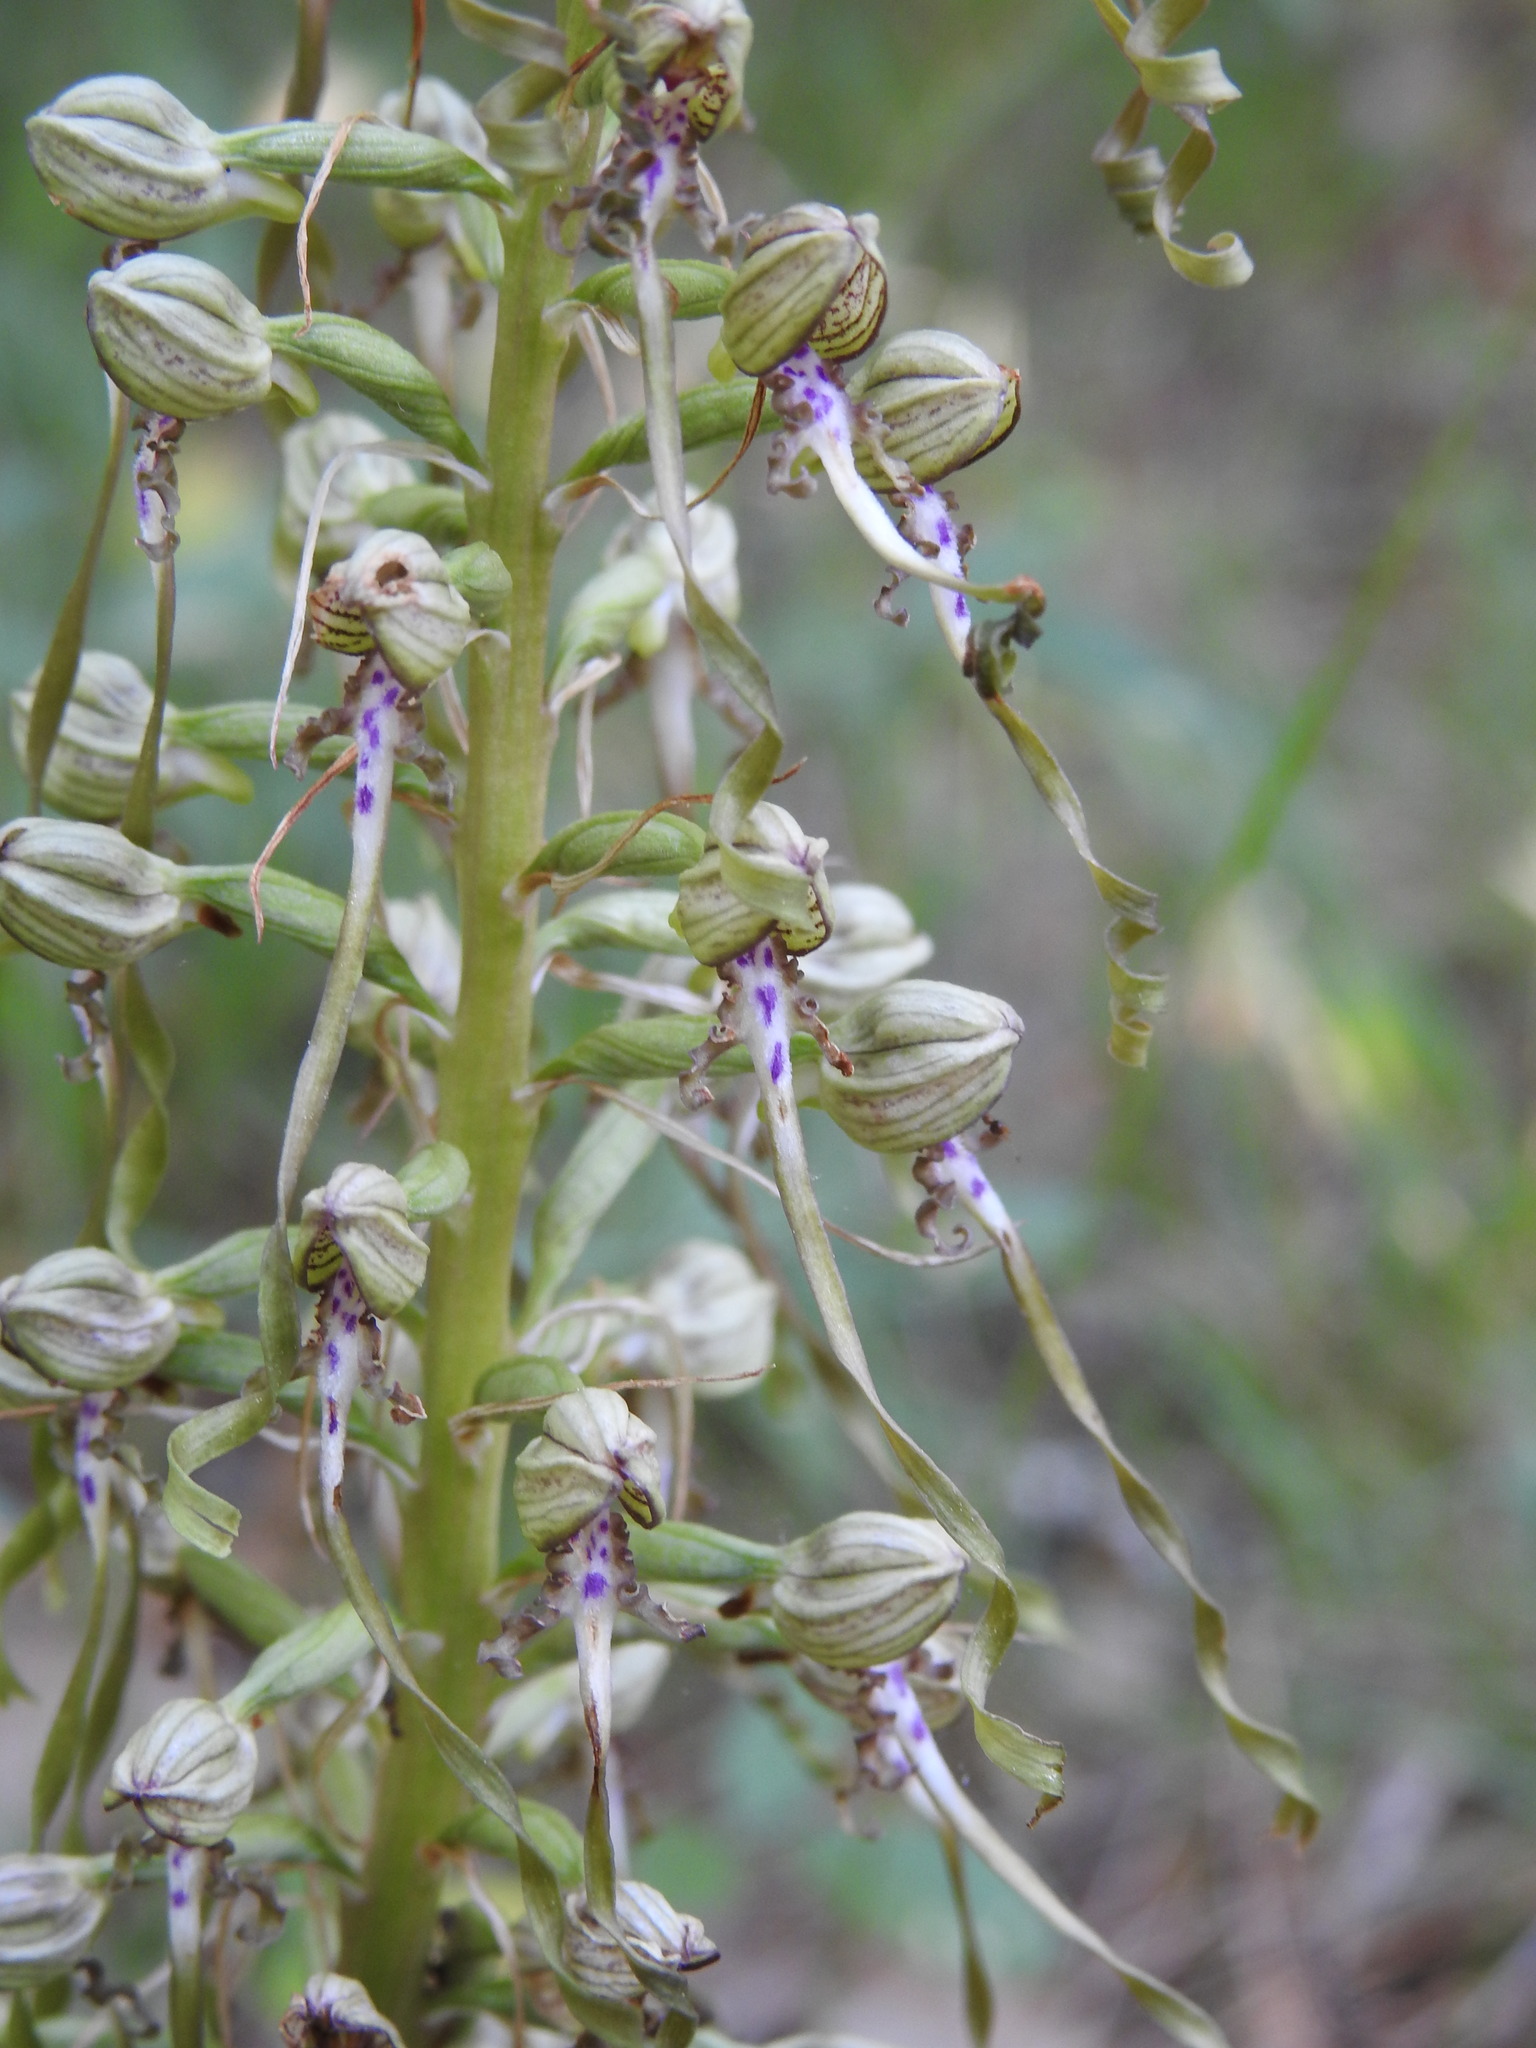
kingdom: Plantae
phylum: Tracheophyta
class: Liliopsida
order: Asparagales
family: Orchidaceae
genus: Himantoglossum
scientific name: Himantoglossum hircinum
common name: Lizard orchid
